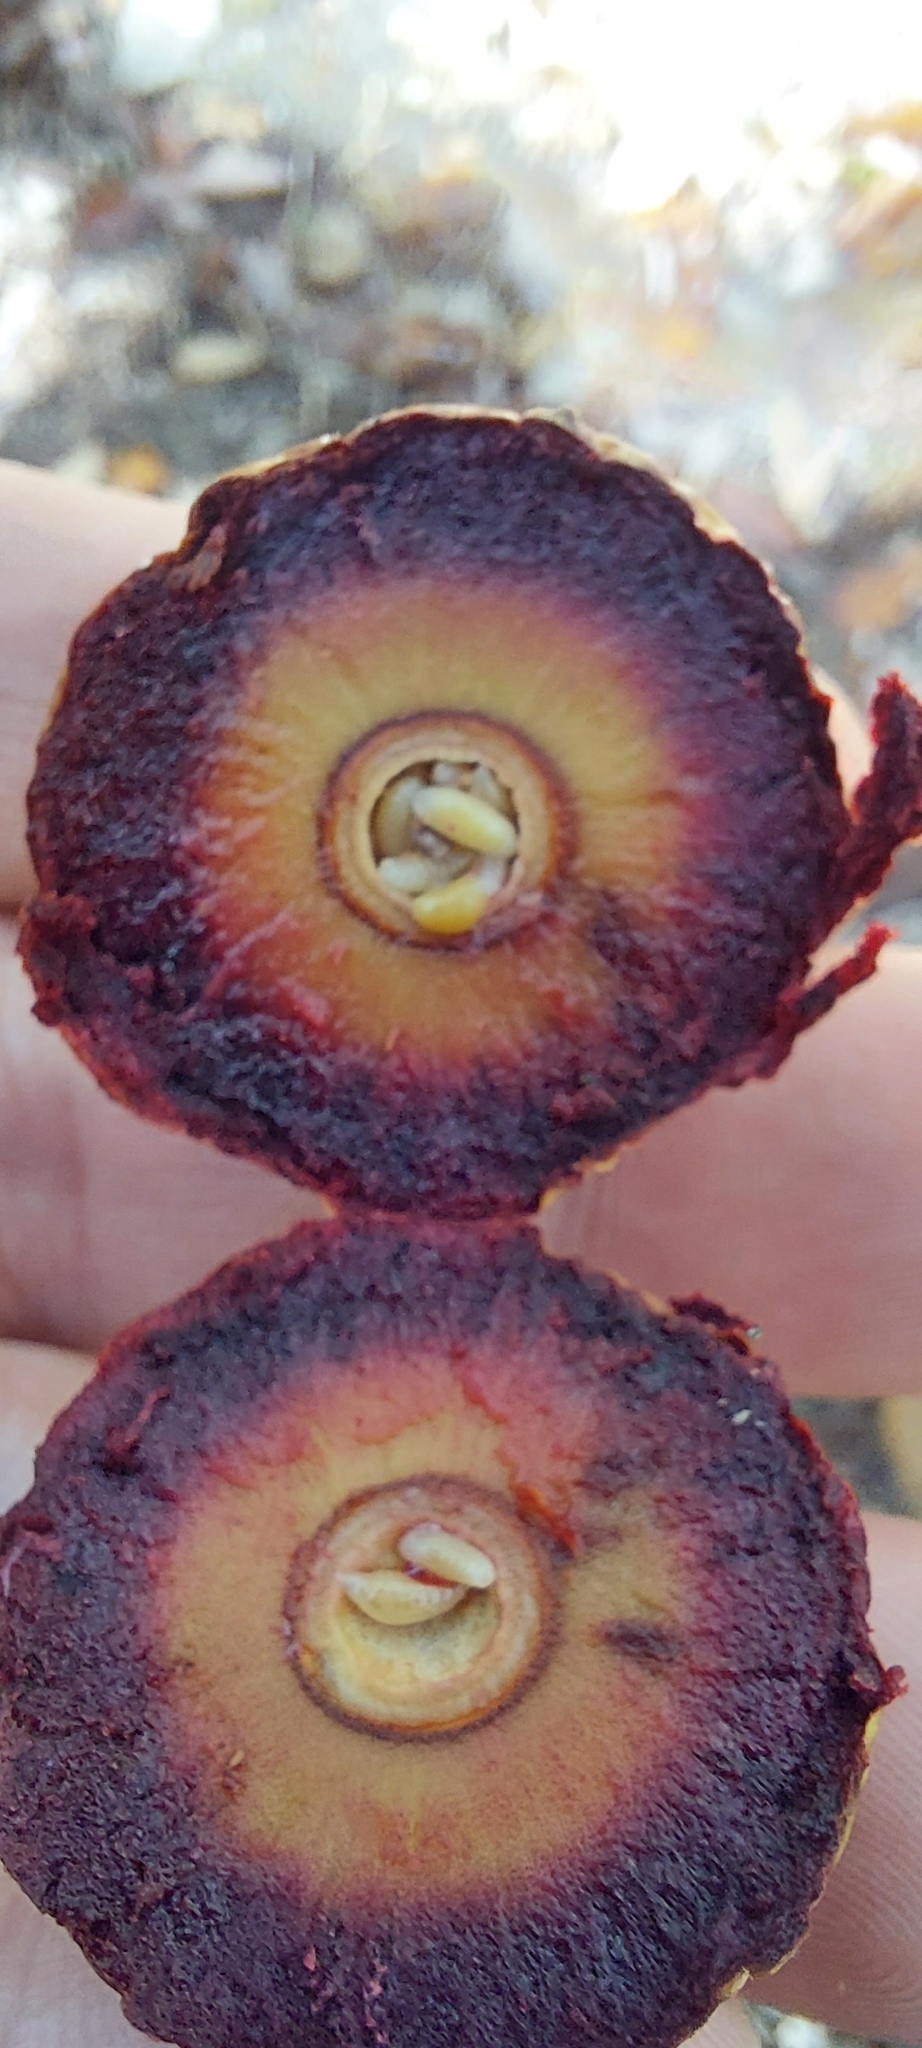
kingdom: Animalia
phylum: Arthropoda
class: Insecta
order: Hymenoptera
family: Cynipidae
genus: Amphibolips
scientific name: Amphibolips
